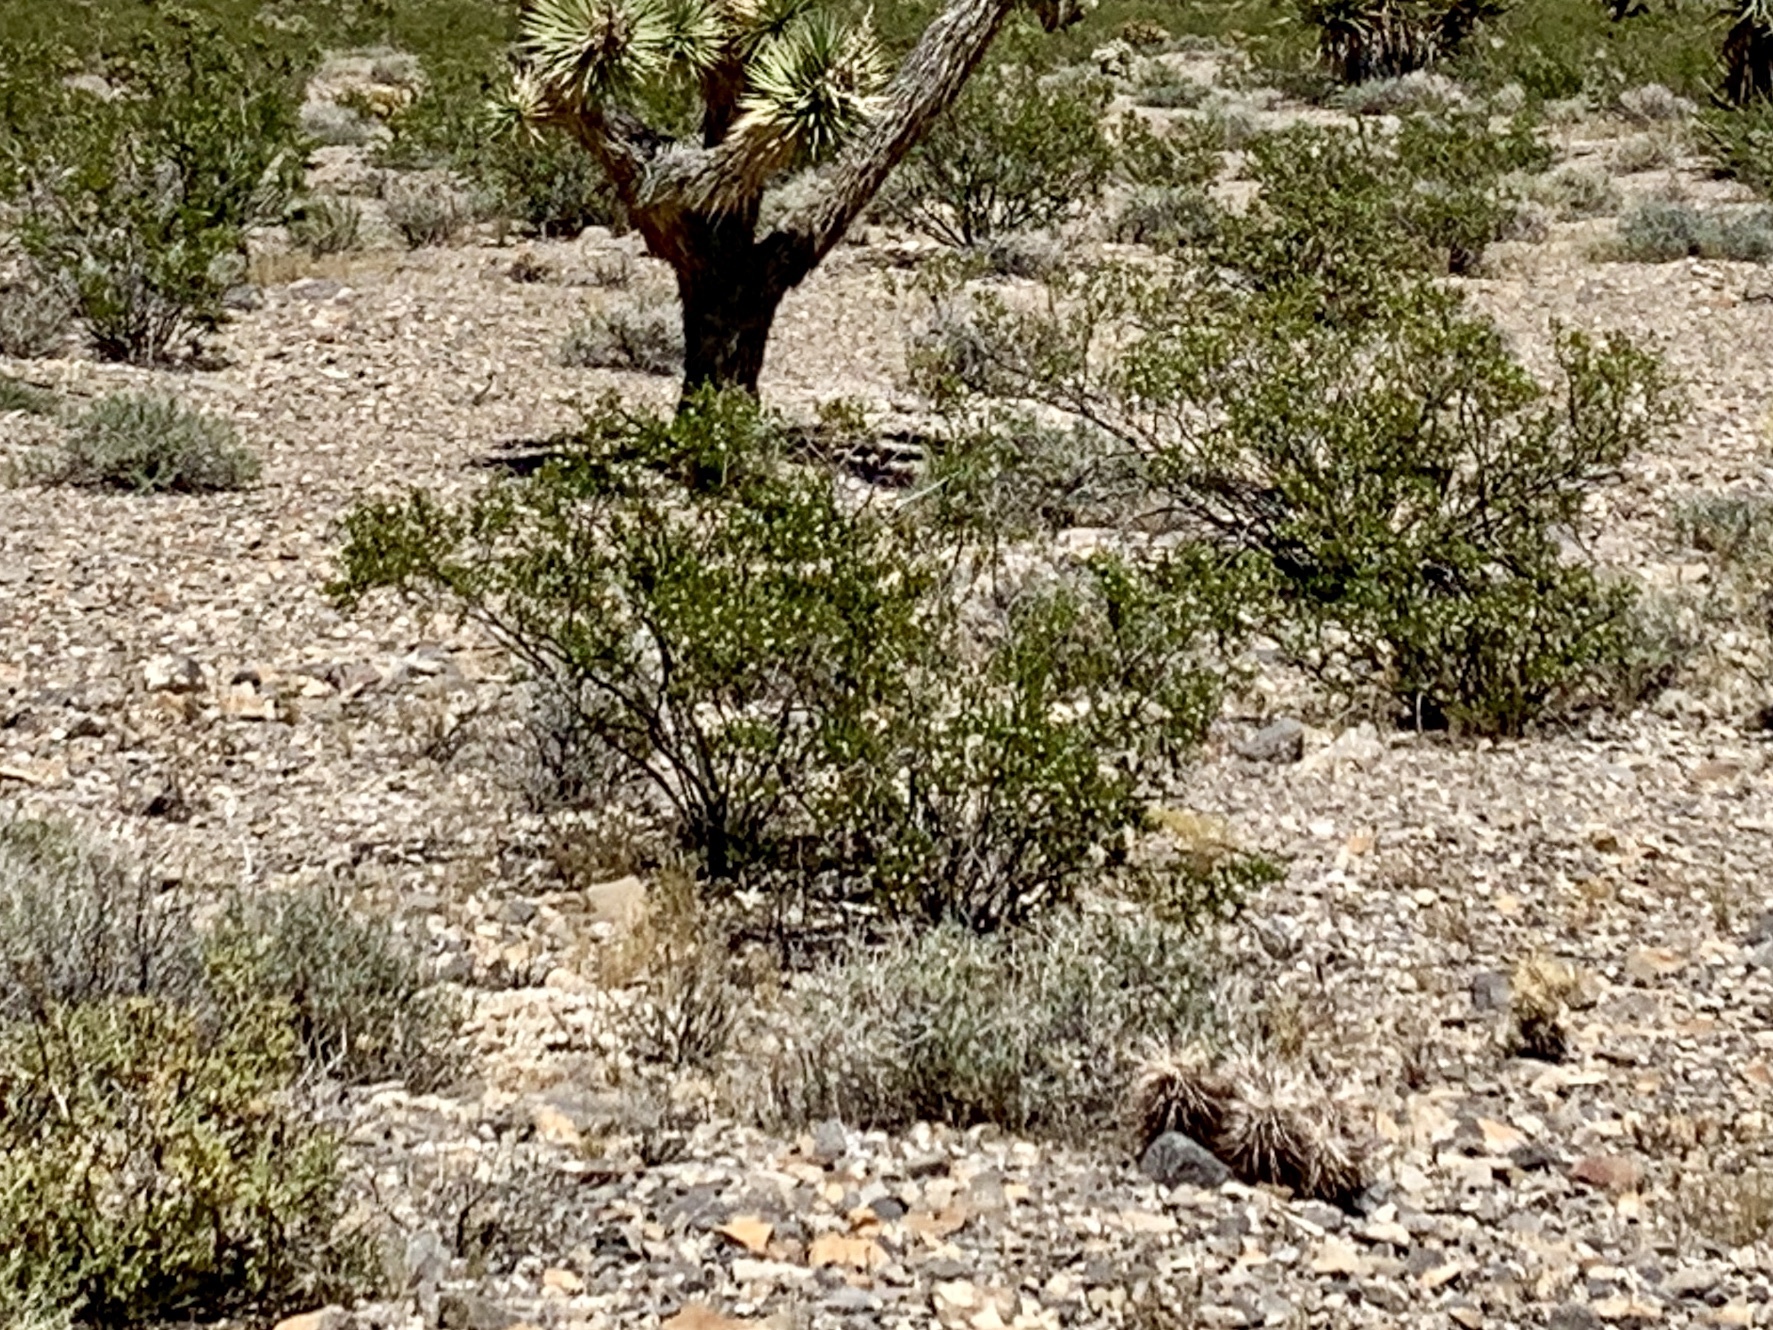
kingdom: Plantae
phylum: Tracheophyta
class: Magnoliopsida
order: Zygophyllales
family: Zygophyllaceae
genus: Larrea
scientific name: Larrea tridentata
